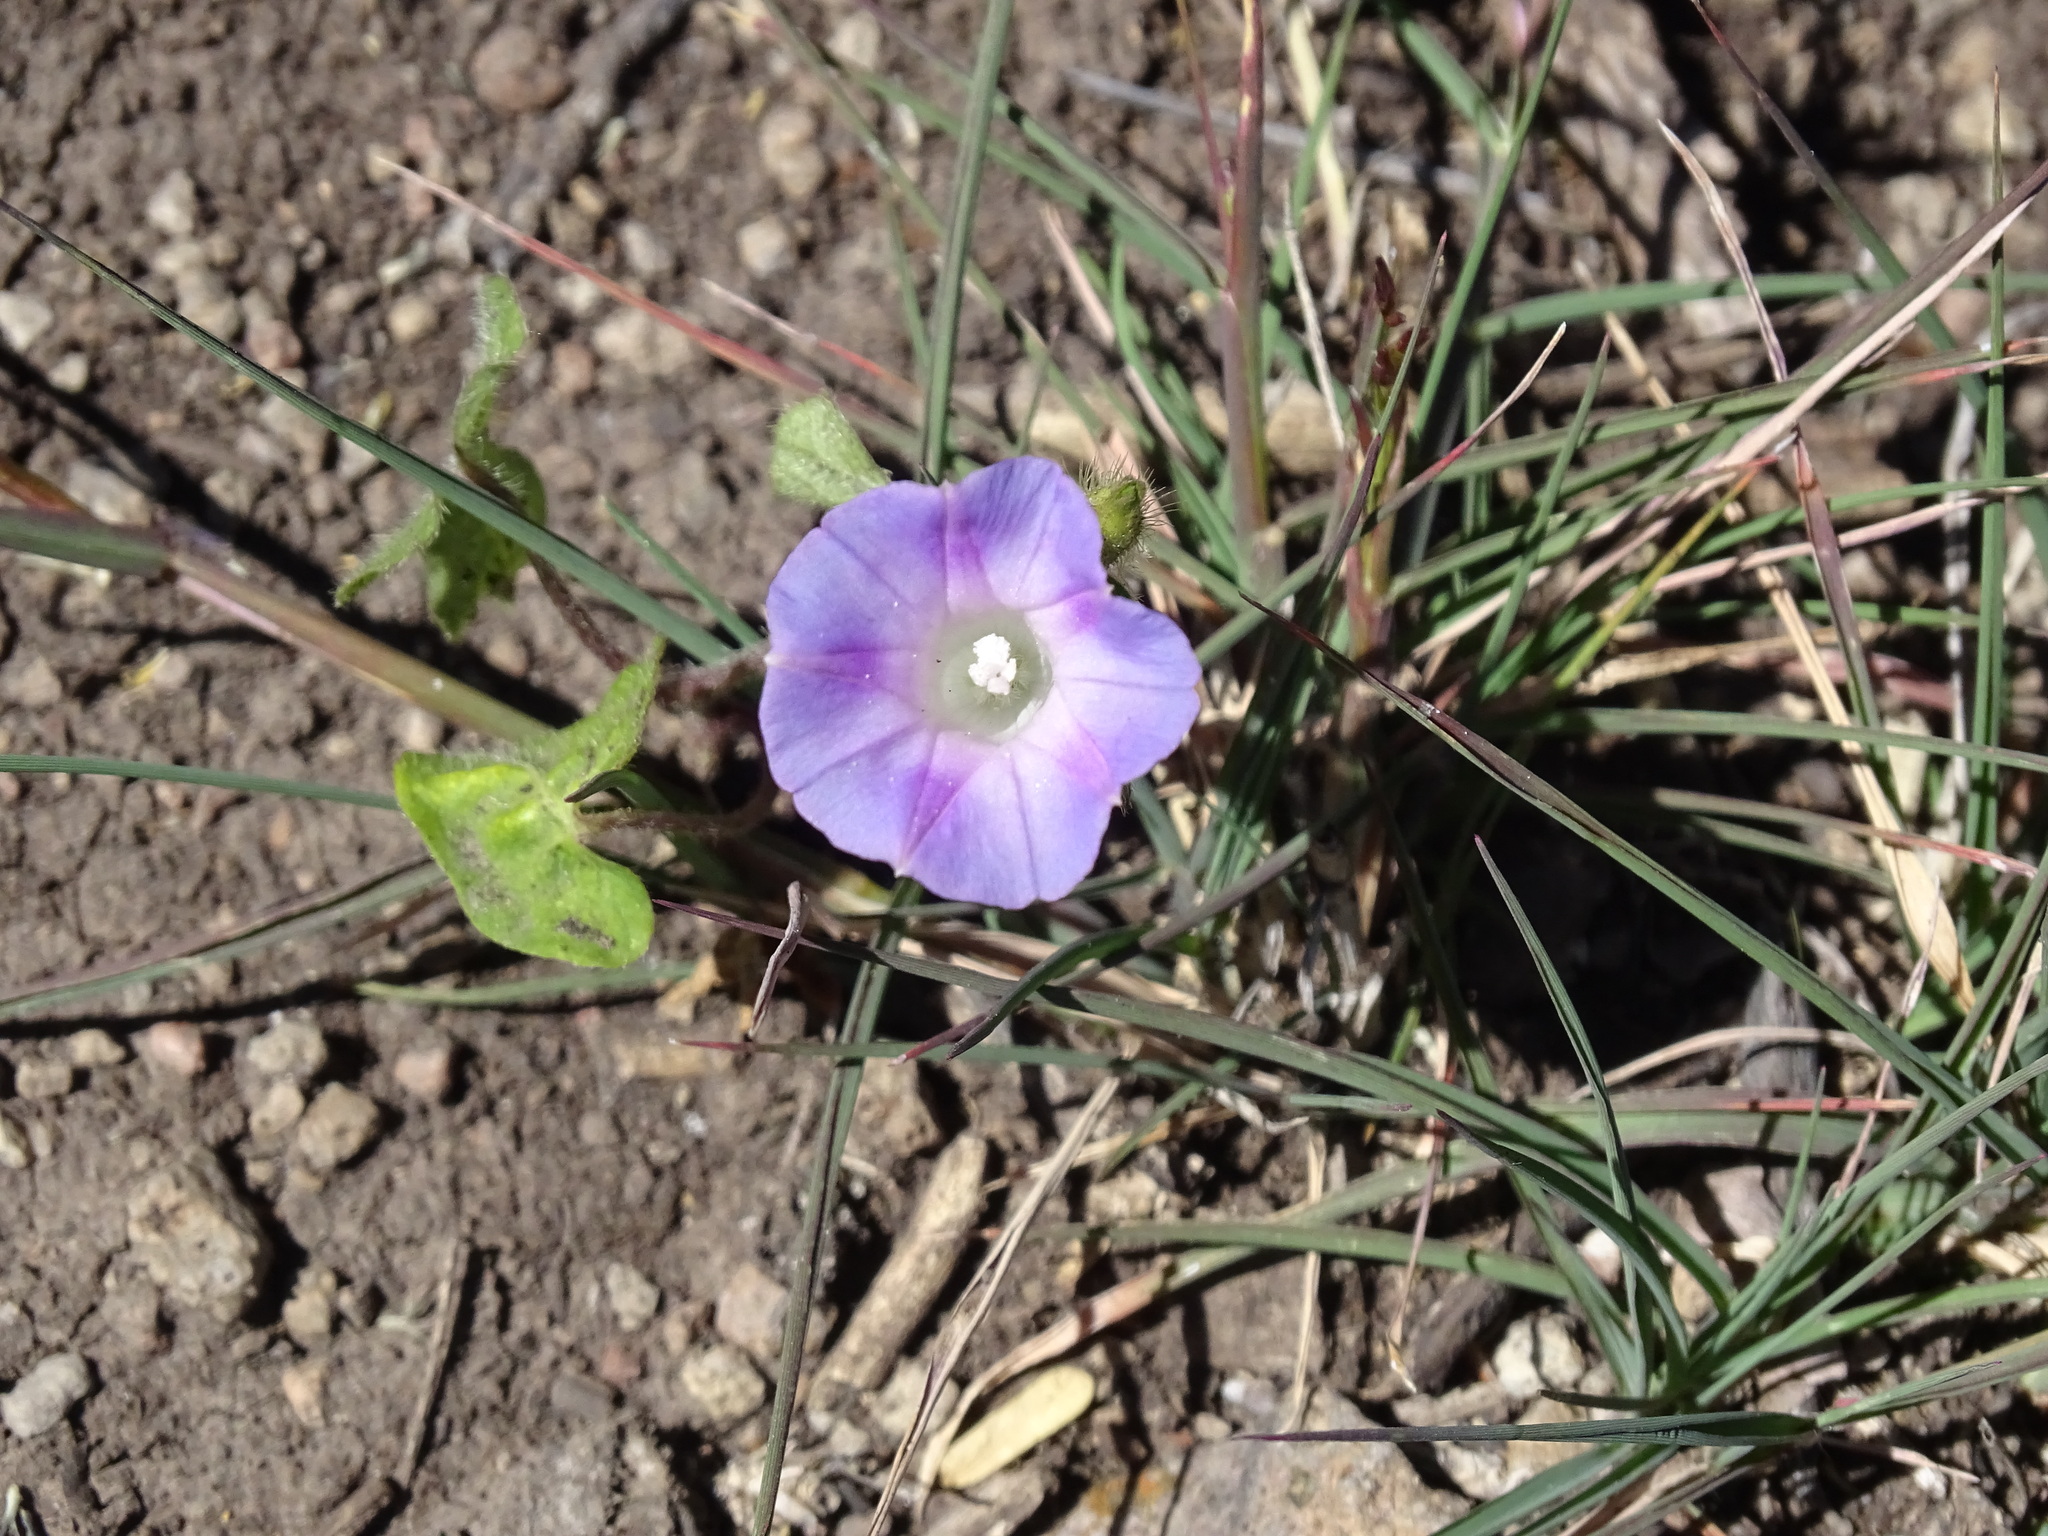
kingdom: Plantae
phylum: Tracheophyta
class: Magnoliopsida
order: Solanales
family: Convolvulaceae
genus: Ipomoea
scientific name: Ipomoea purpurea
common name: Common morning-glory
